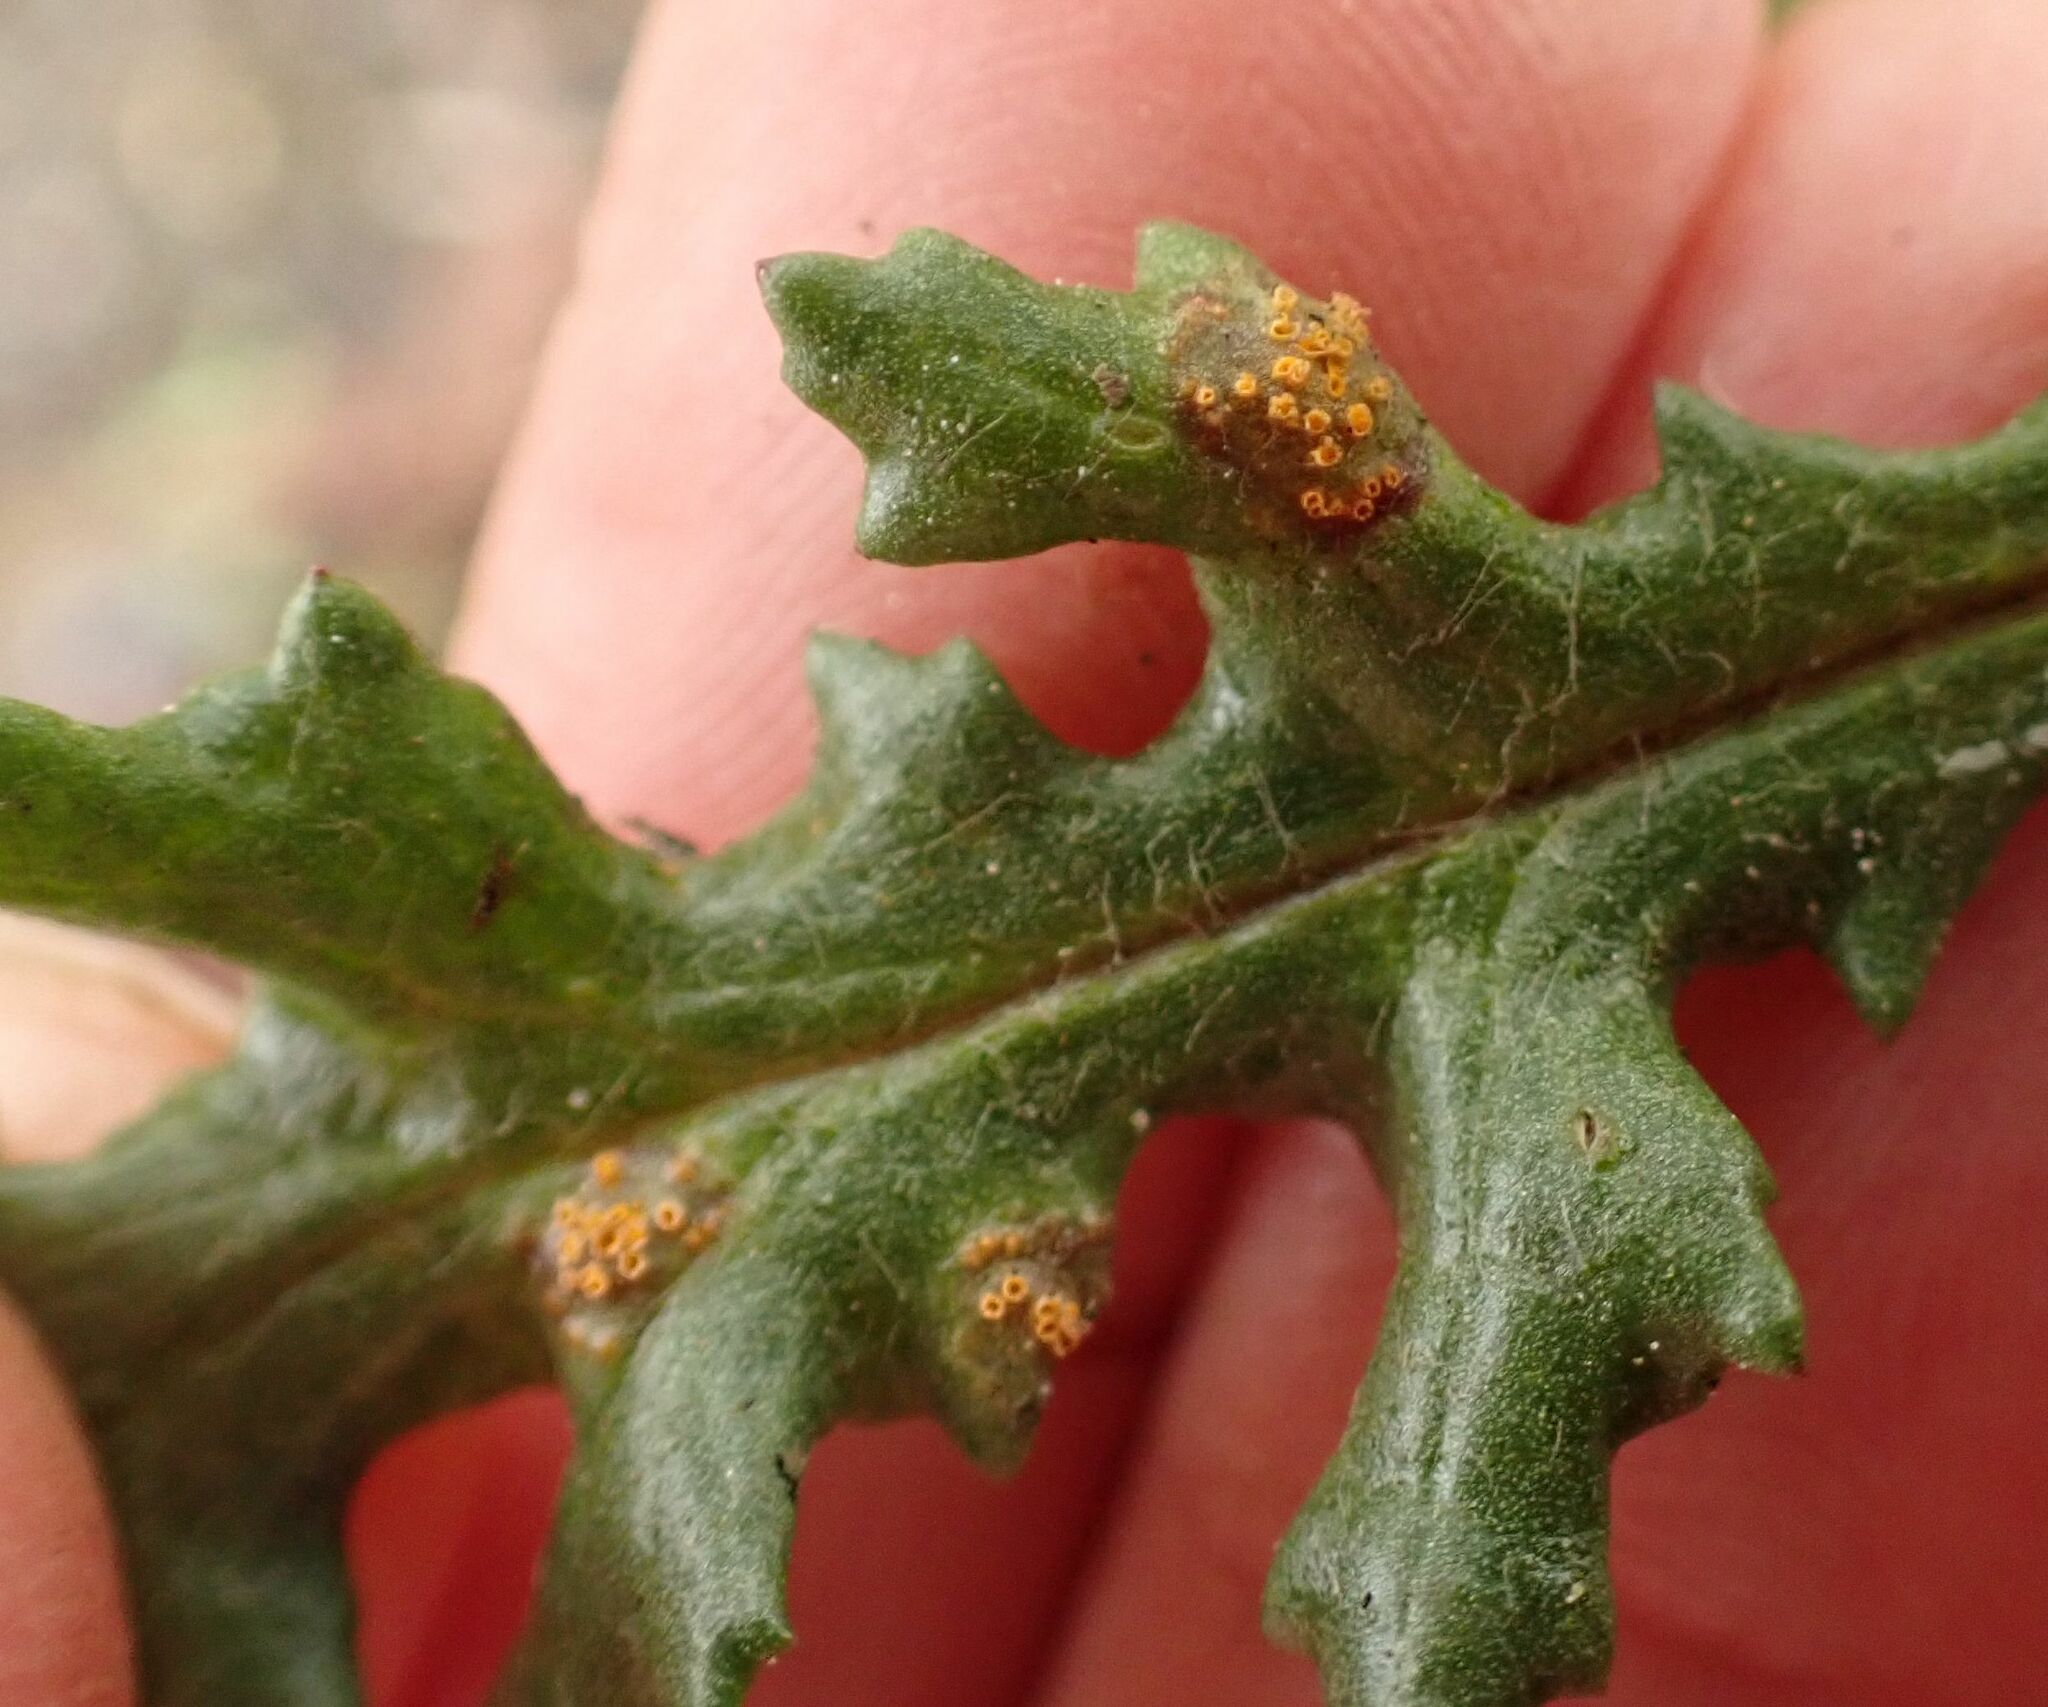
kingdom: Fungi
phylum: Basidiomycota
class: Pucciniomycetes
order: Pucciniales
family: Pucciniaceae
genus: Puccinia
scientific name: Puccinia lagenophorae
